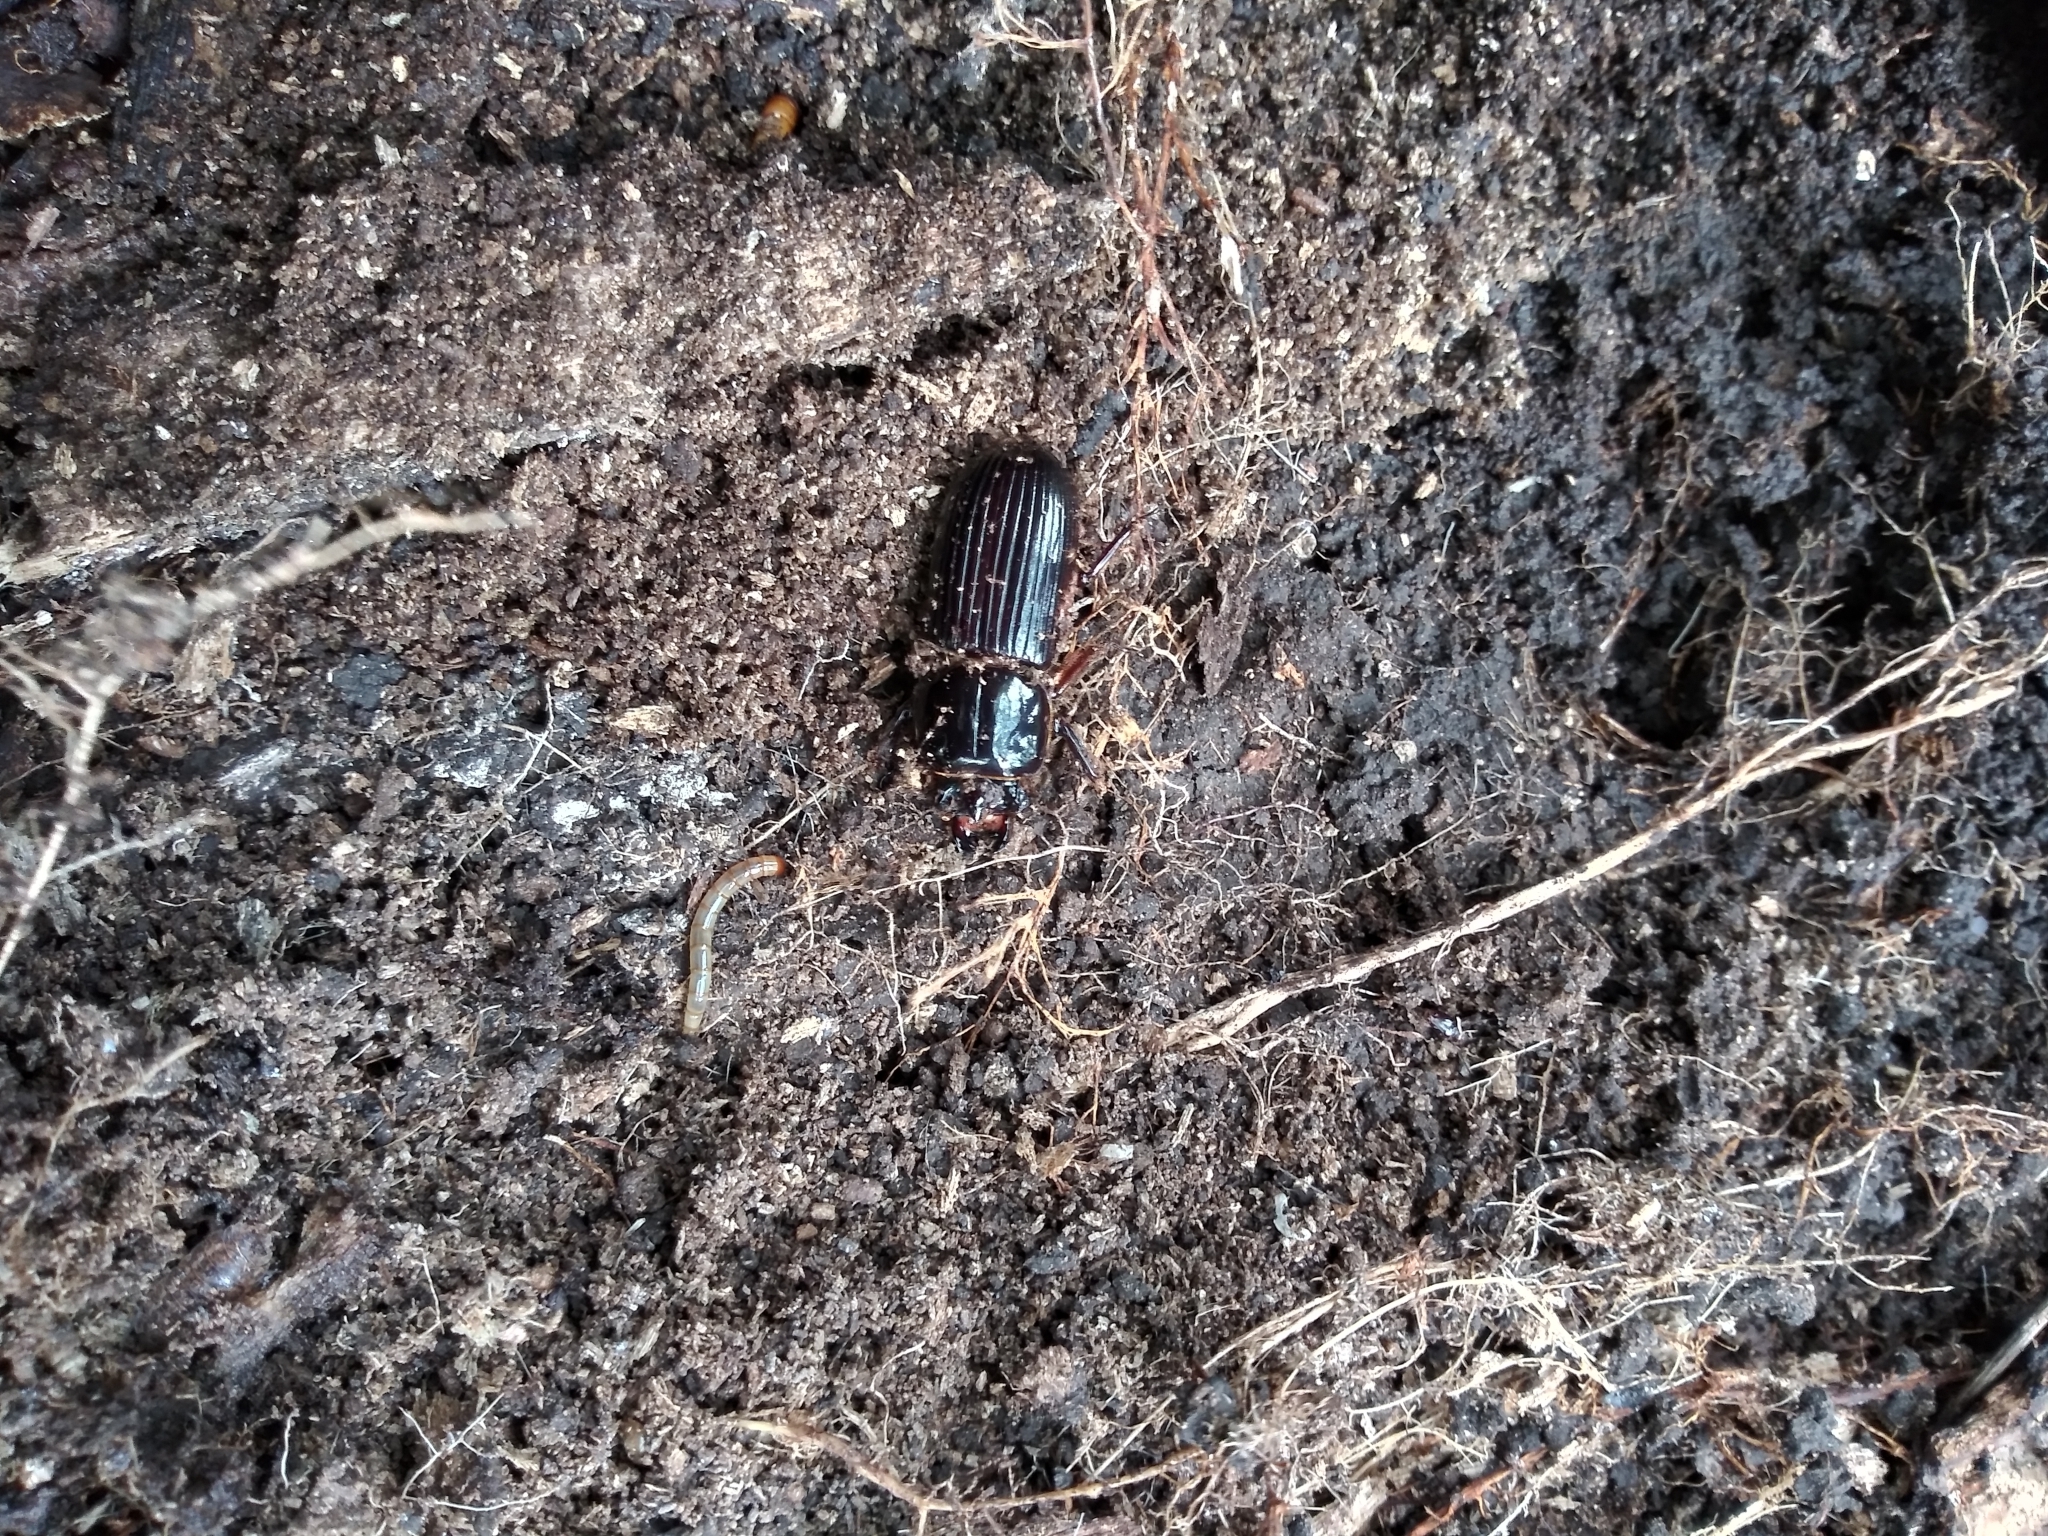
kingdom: Animalia
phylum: Arthropoda
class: Insecta
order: Coleoptera
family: Passalidae
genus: Odontotaenius
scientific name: Odontotaenius disjunctus
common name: Patent leather beetle
